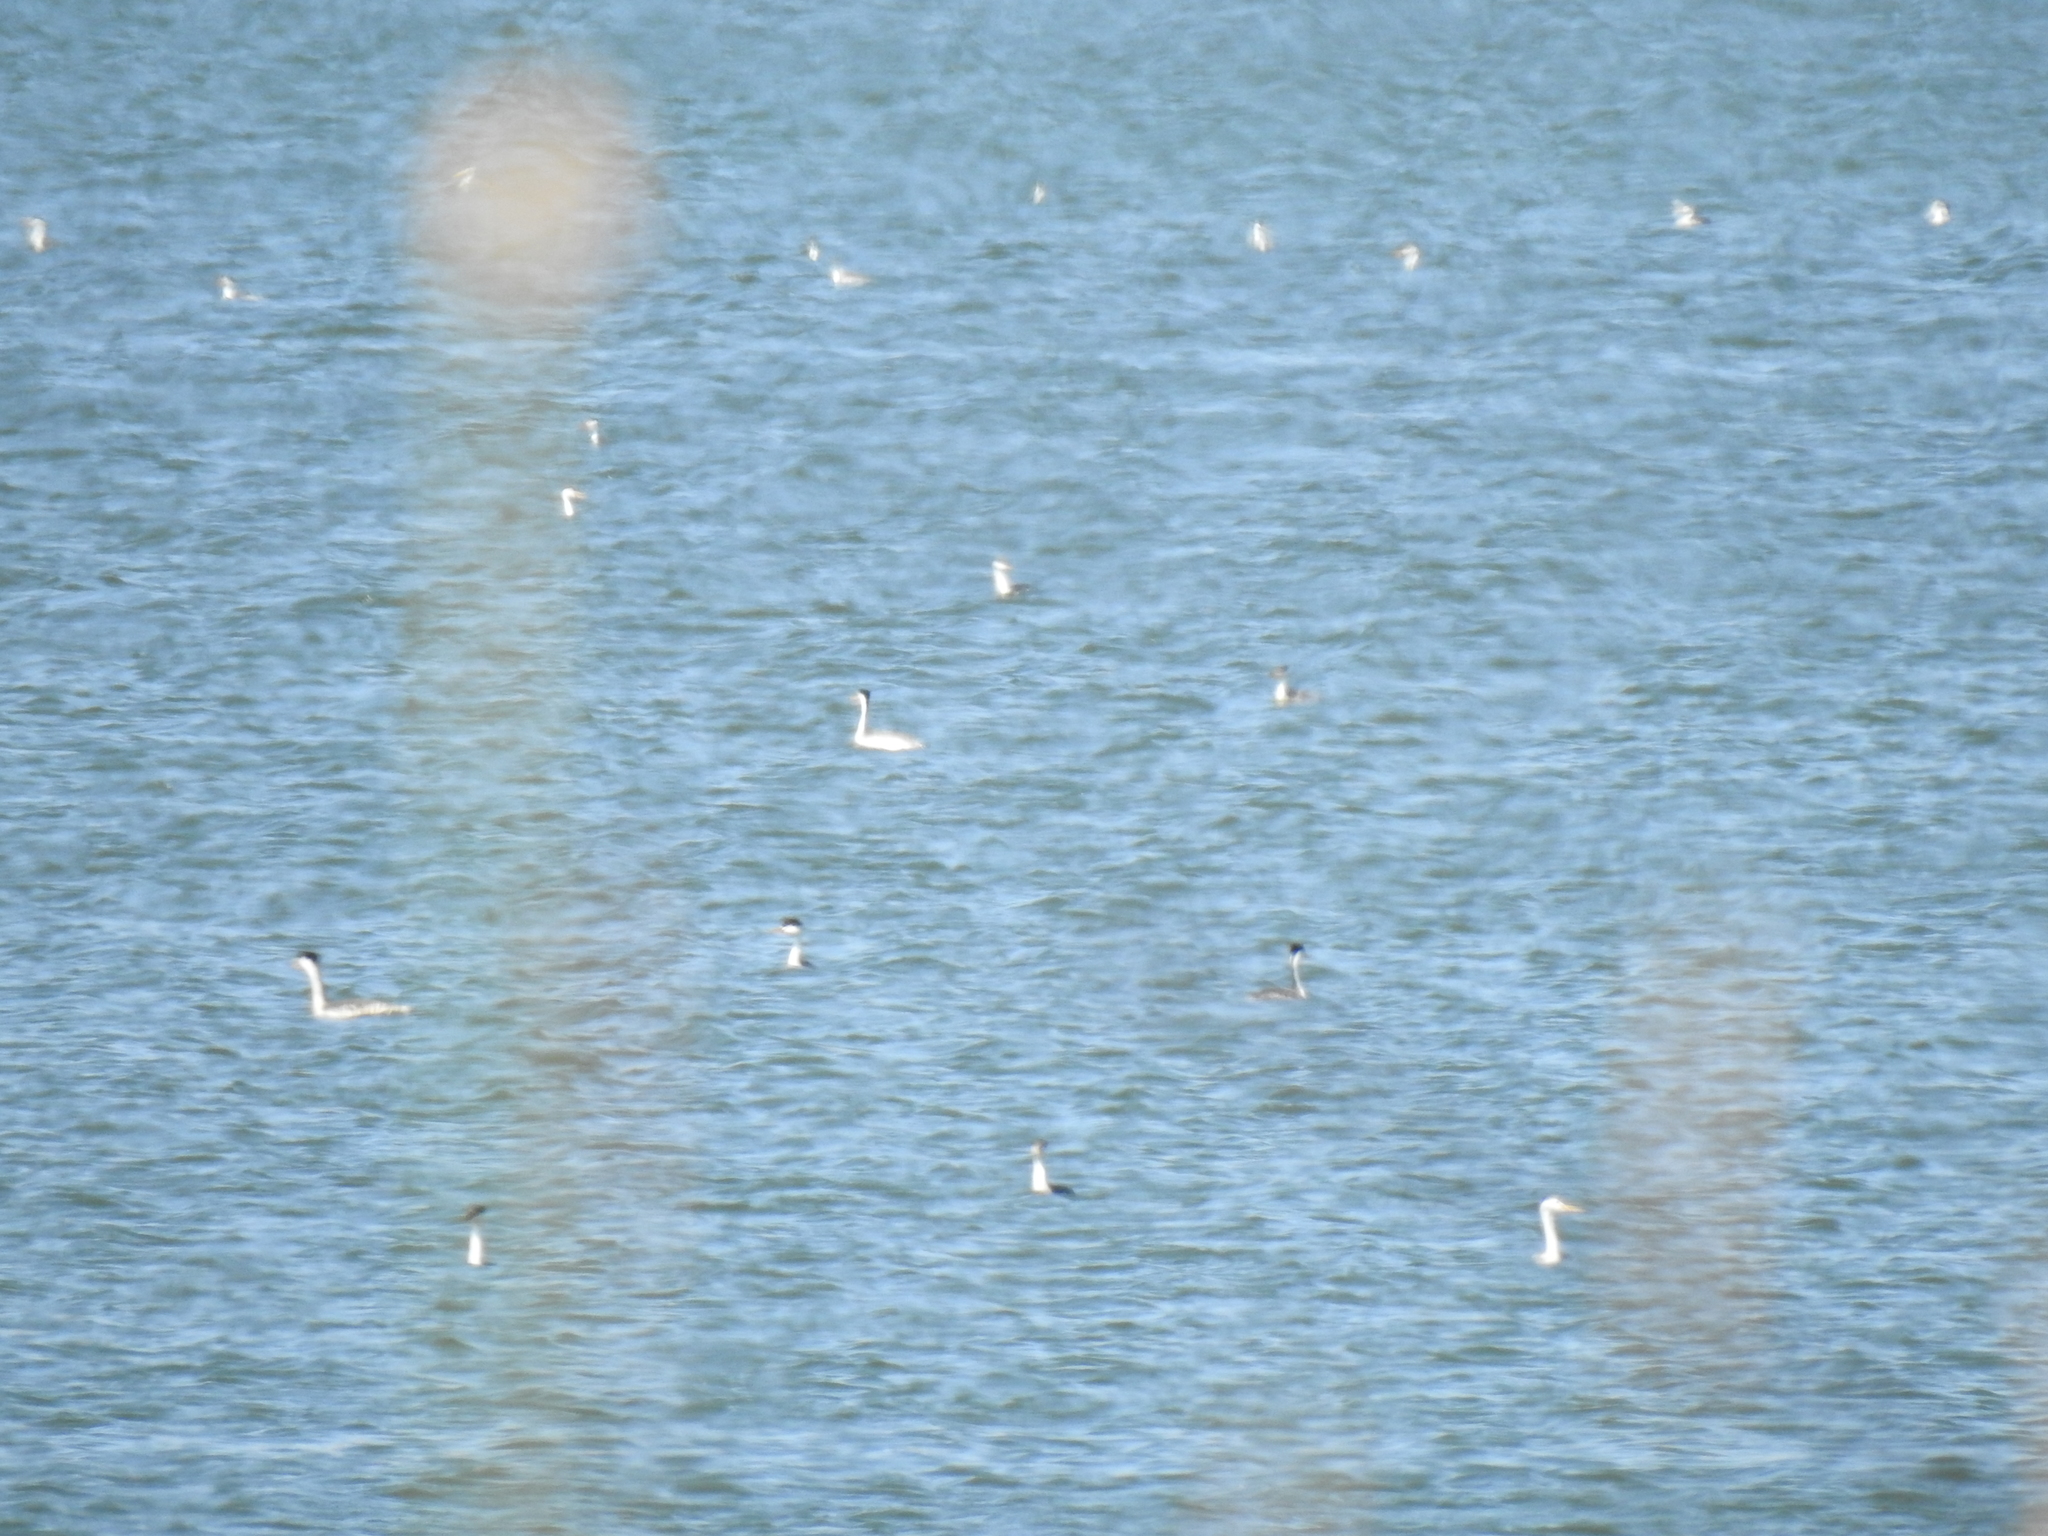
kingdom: Animalia
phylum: Chordata
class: Aves
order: Podicipediformes
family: Podicipedidae
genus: Aechmophorus
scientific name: Aechmophorus clarkii
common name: Clark's grebe
